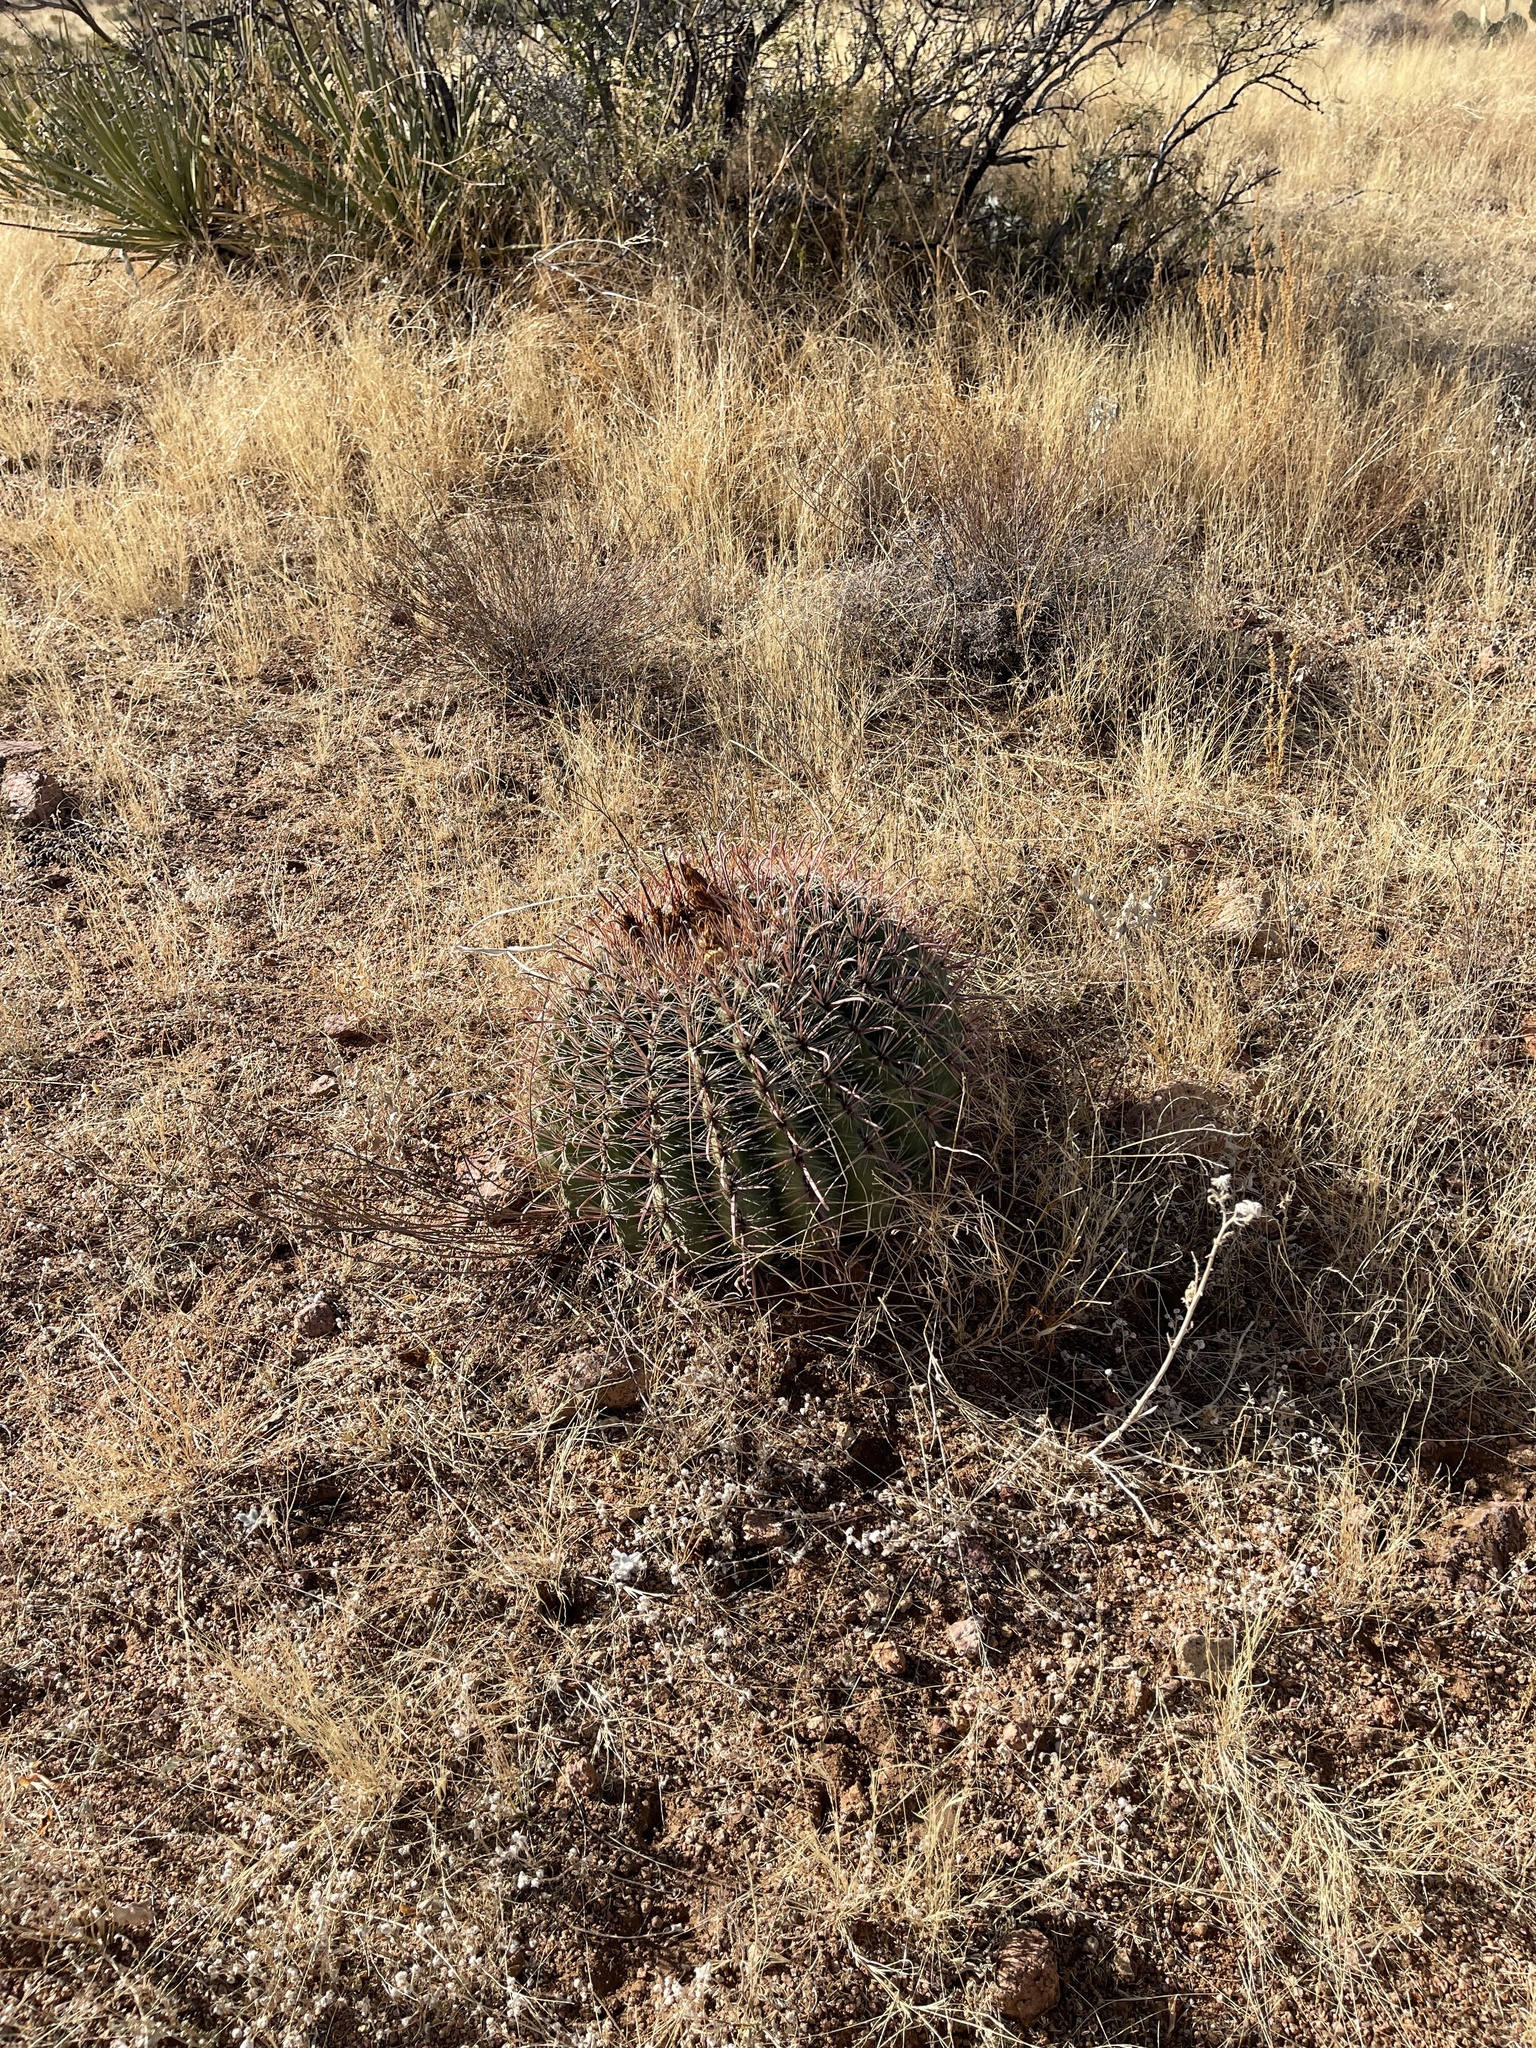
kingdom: Plantae
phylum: Tracheophyta
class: Magnoliopsida
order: Caryophyllales
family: Cactaceae
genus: Ferocactus
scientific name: Ferocactus wislizeni
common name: Candy barrel cactus
